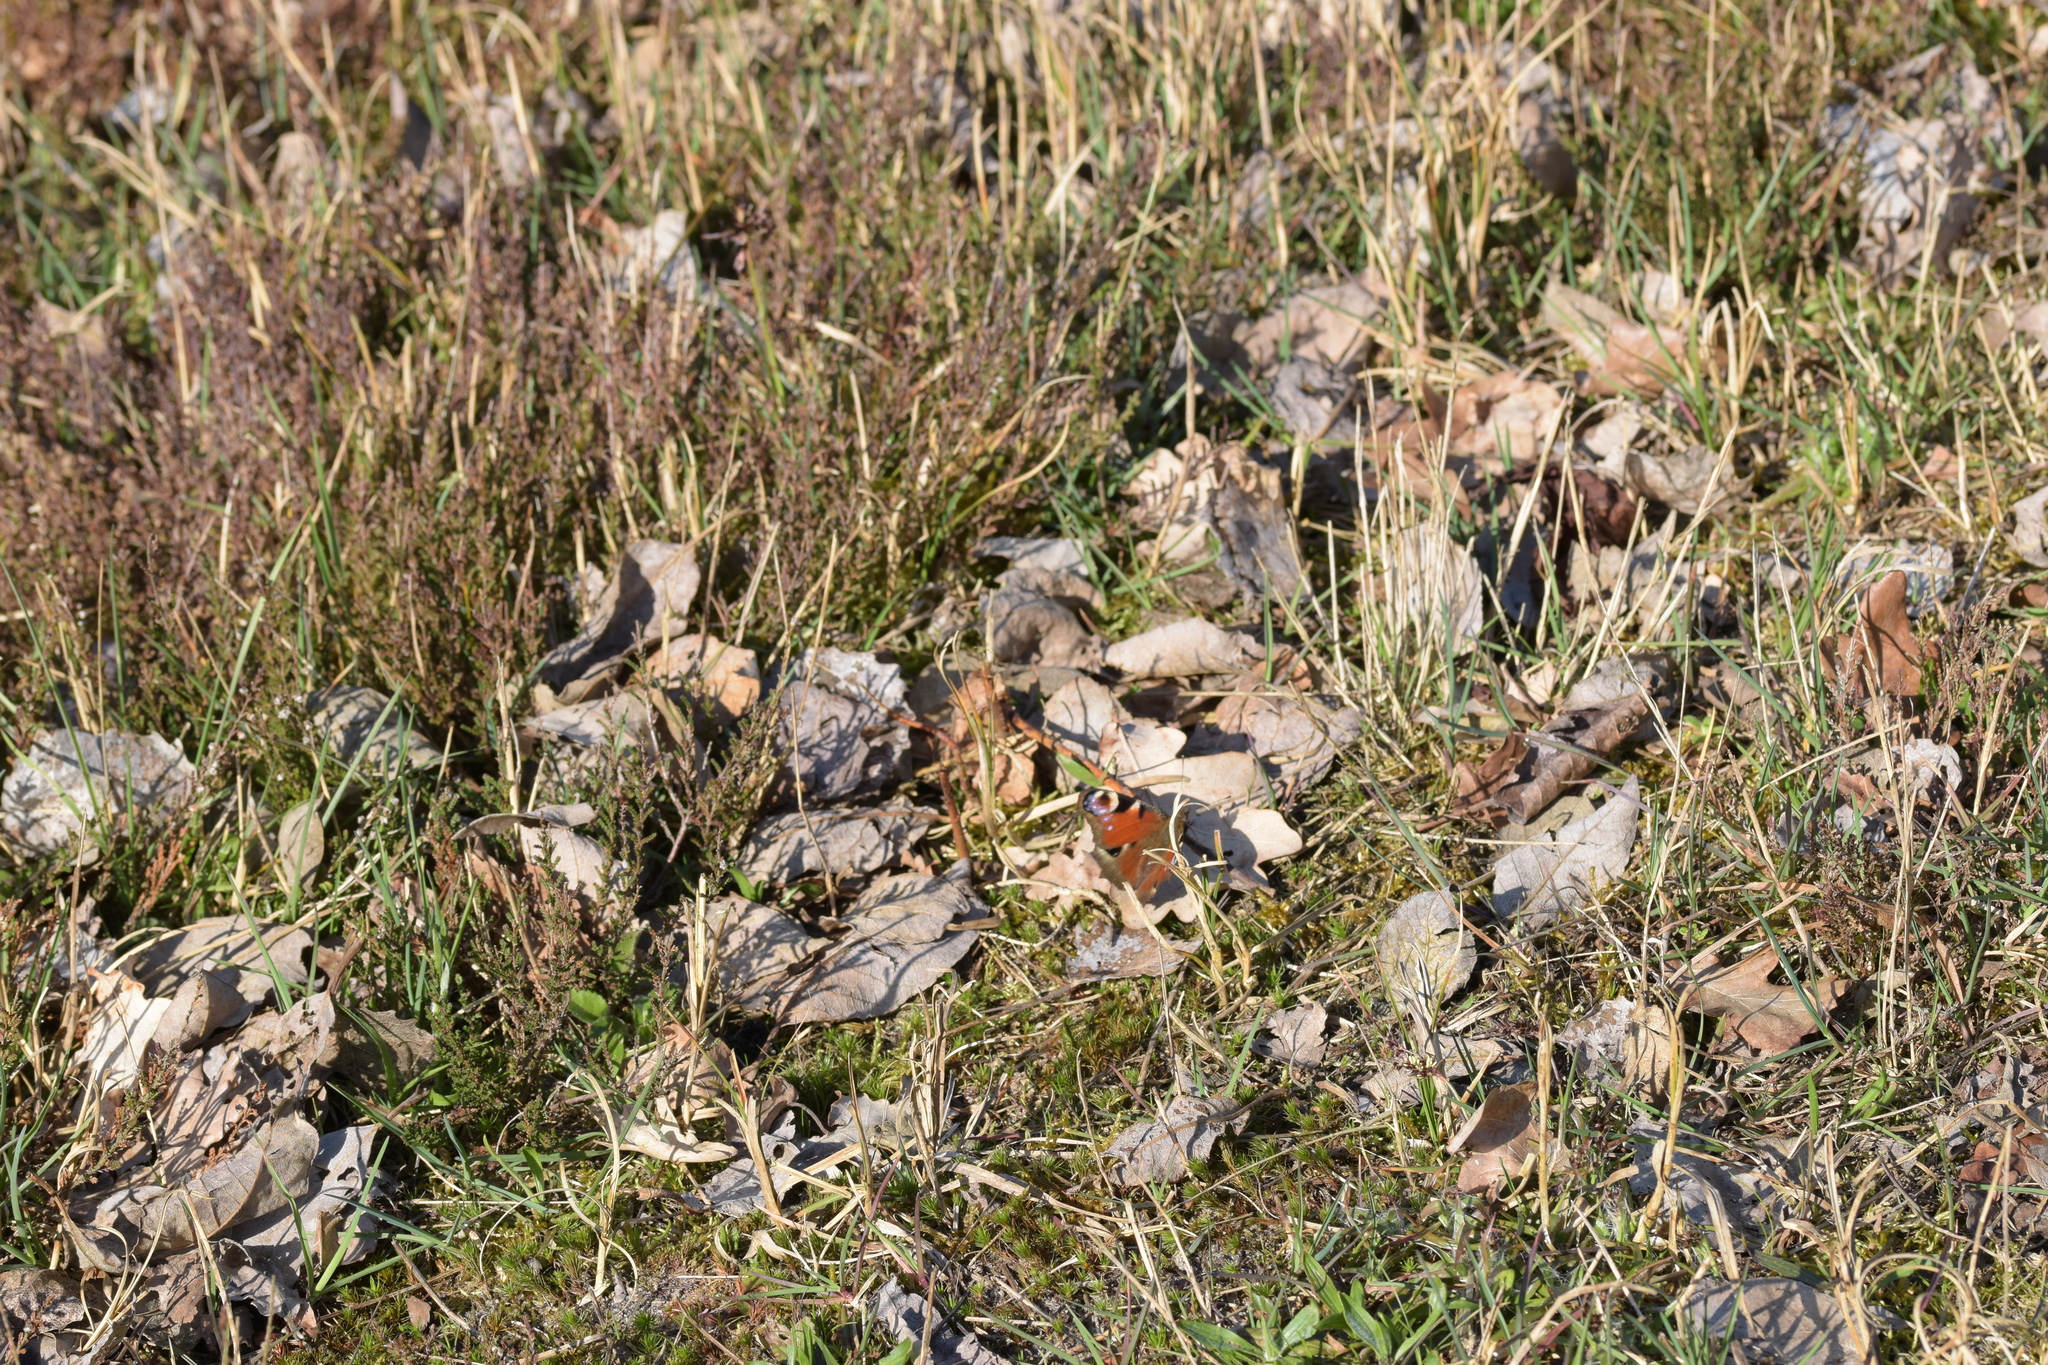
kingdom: Animalia
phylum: Arthropoda
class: Insecta
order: Lepidoptera
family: Nymphalidae
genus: Aglais
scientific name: Aglais io
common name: Peacock
